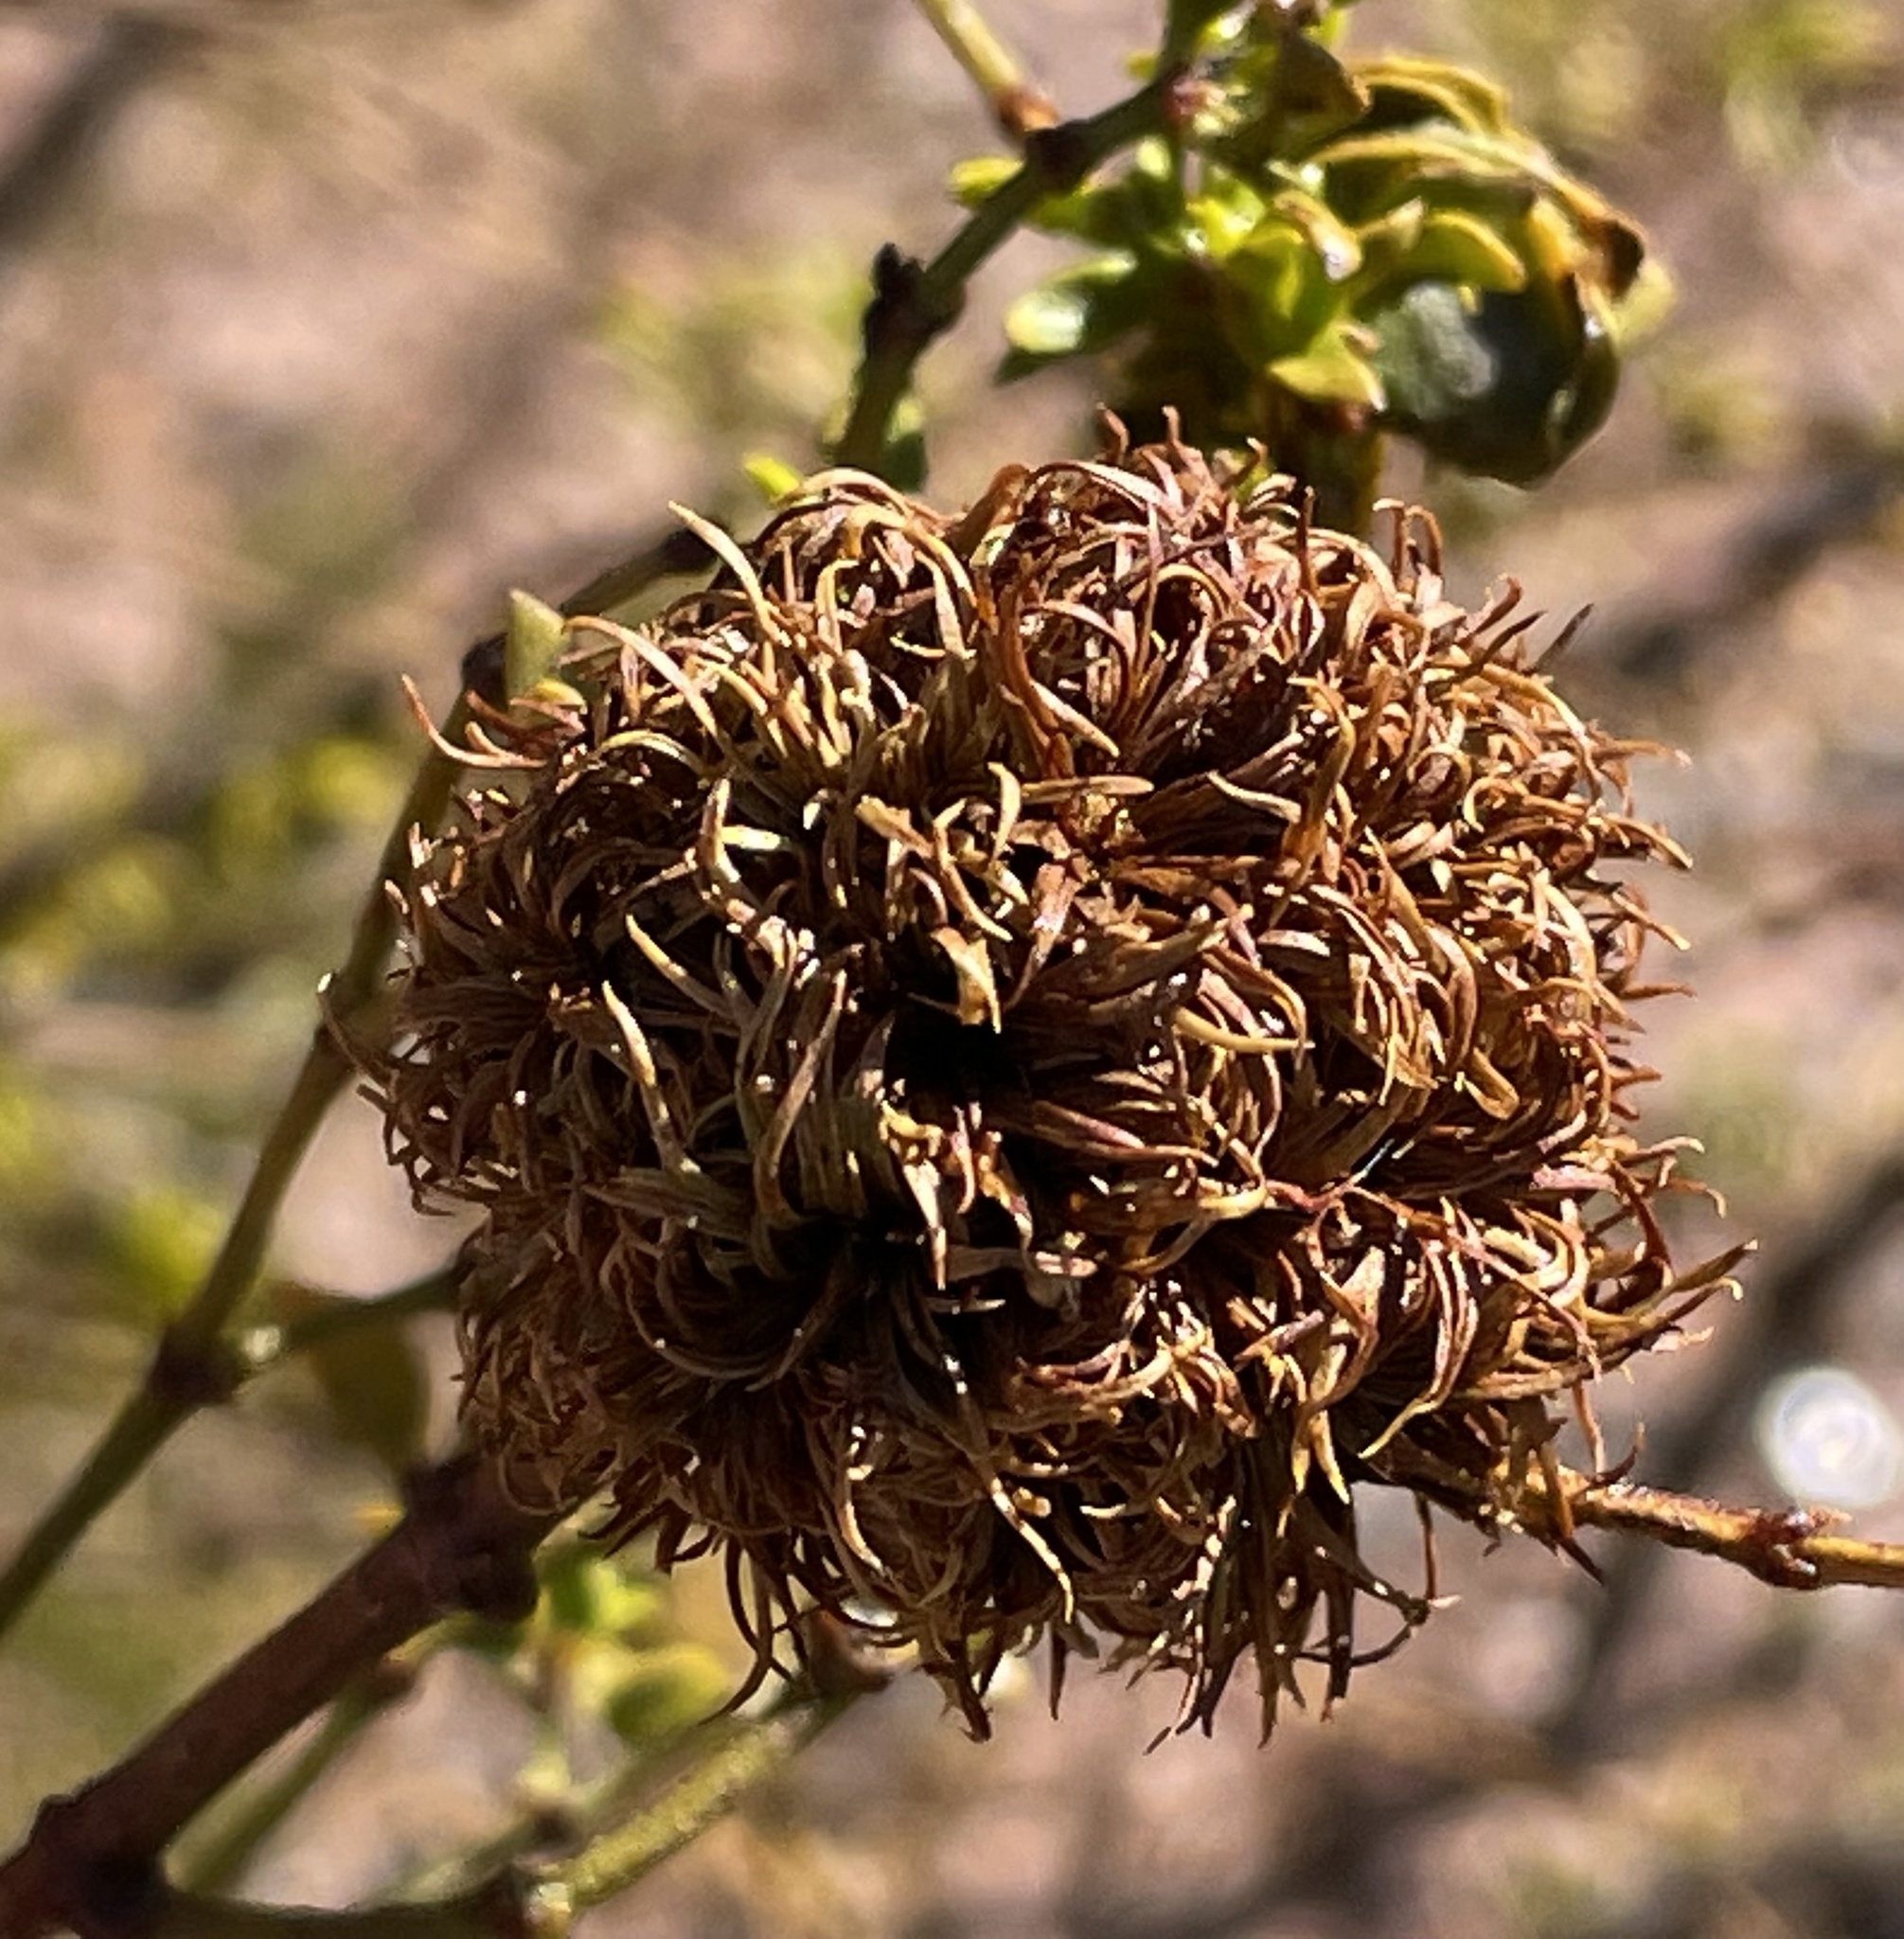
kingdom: Animalia
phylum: Arthropoda
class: Insecta
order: Diptera
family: Cecidomyiidae
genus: Asphondylia
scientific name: Asphondylia auripila
